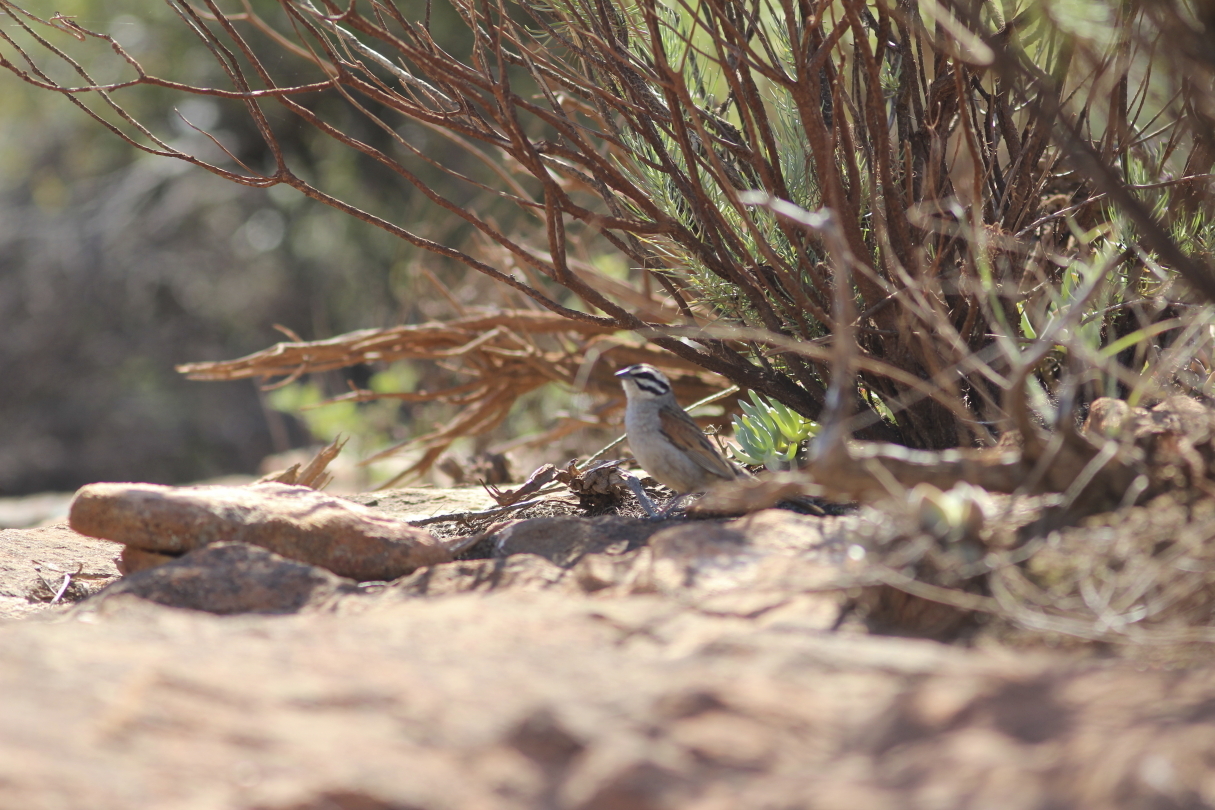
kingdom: Animalia
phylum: Chordata
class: Aves
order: Passeriformes
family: Emberizidae
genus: Emberiza
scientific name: Emberiza capensis
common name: Cape bunting
